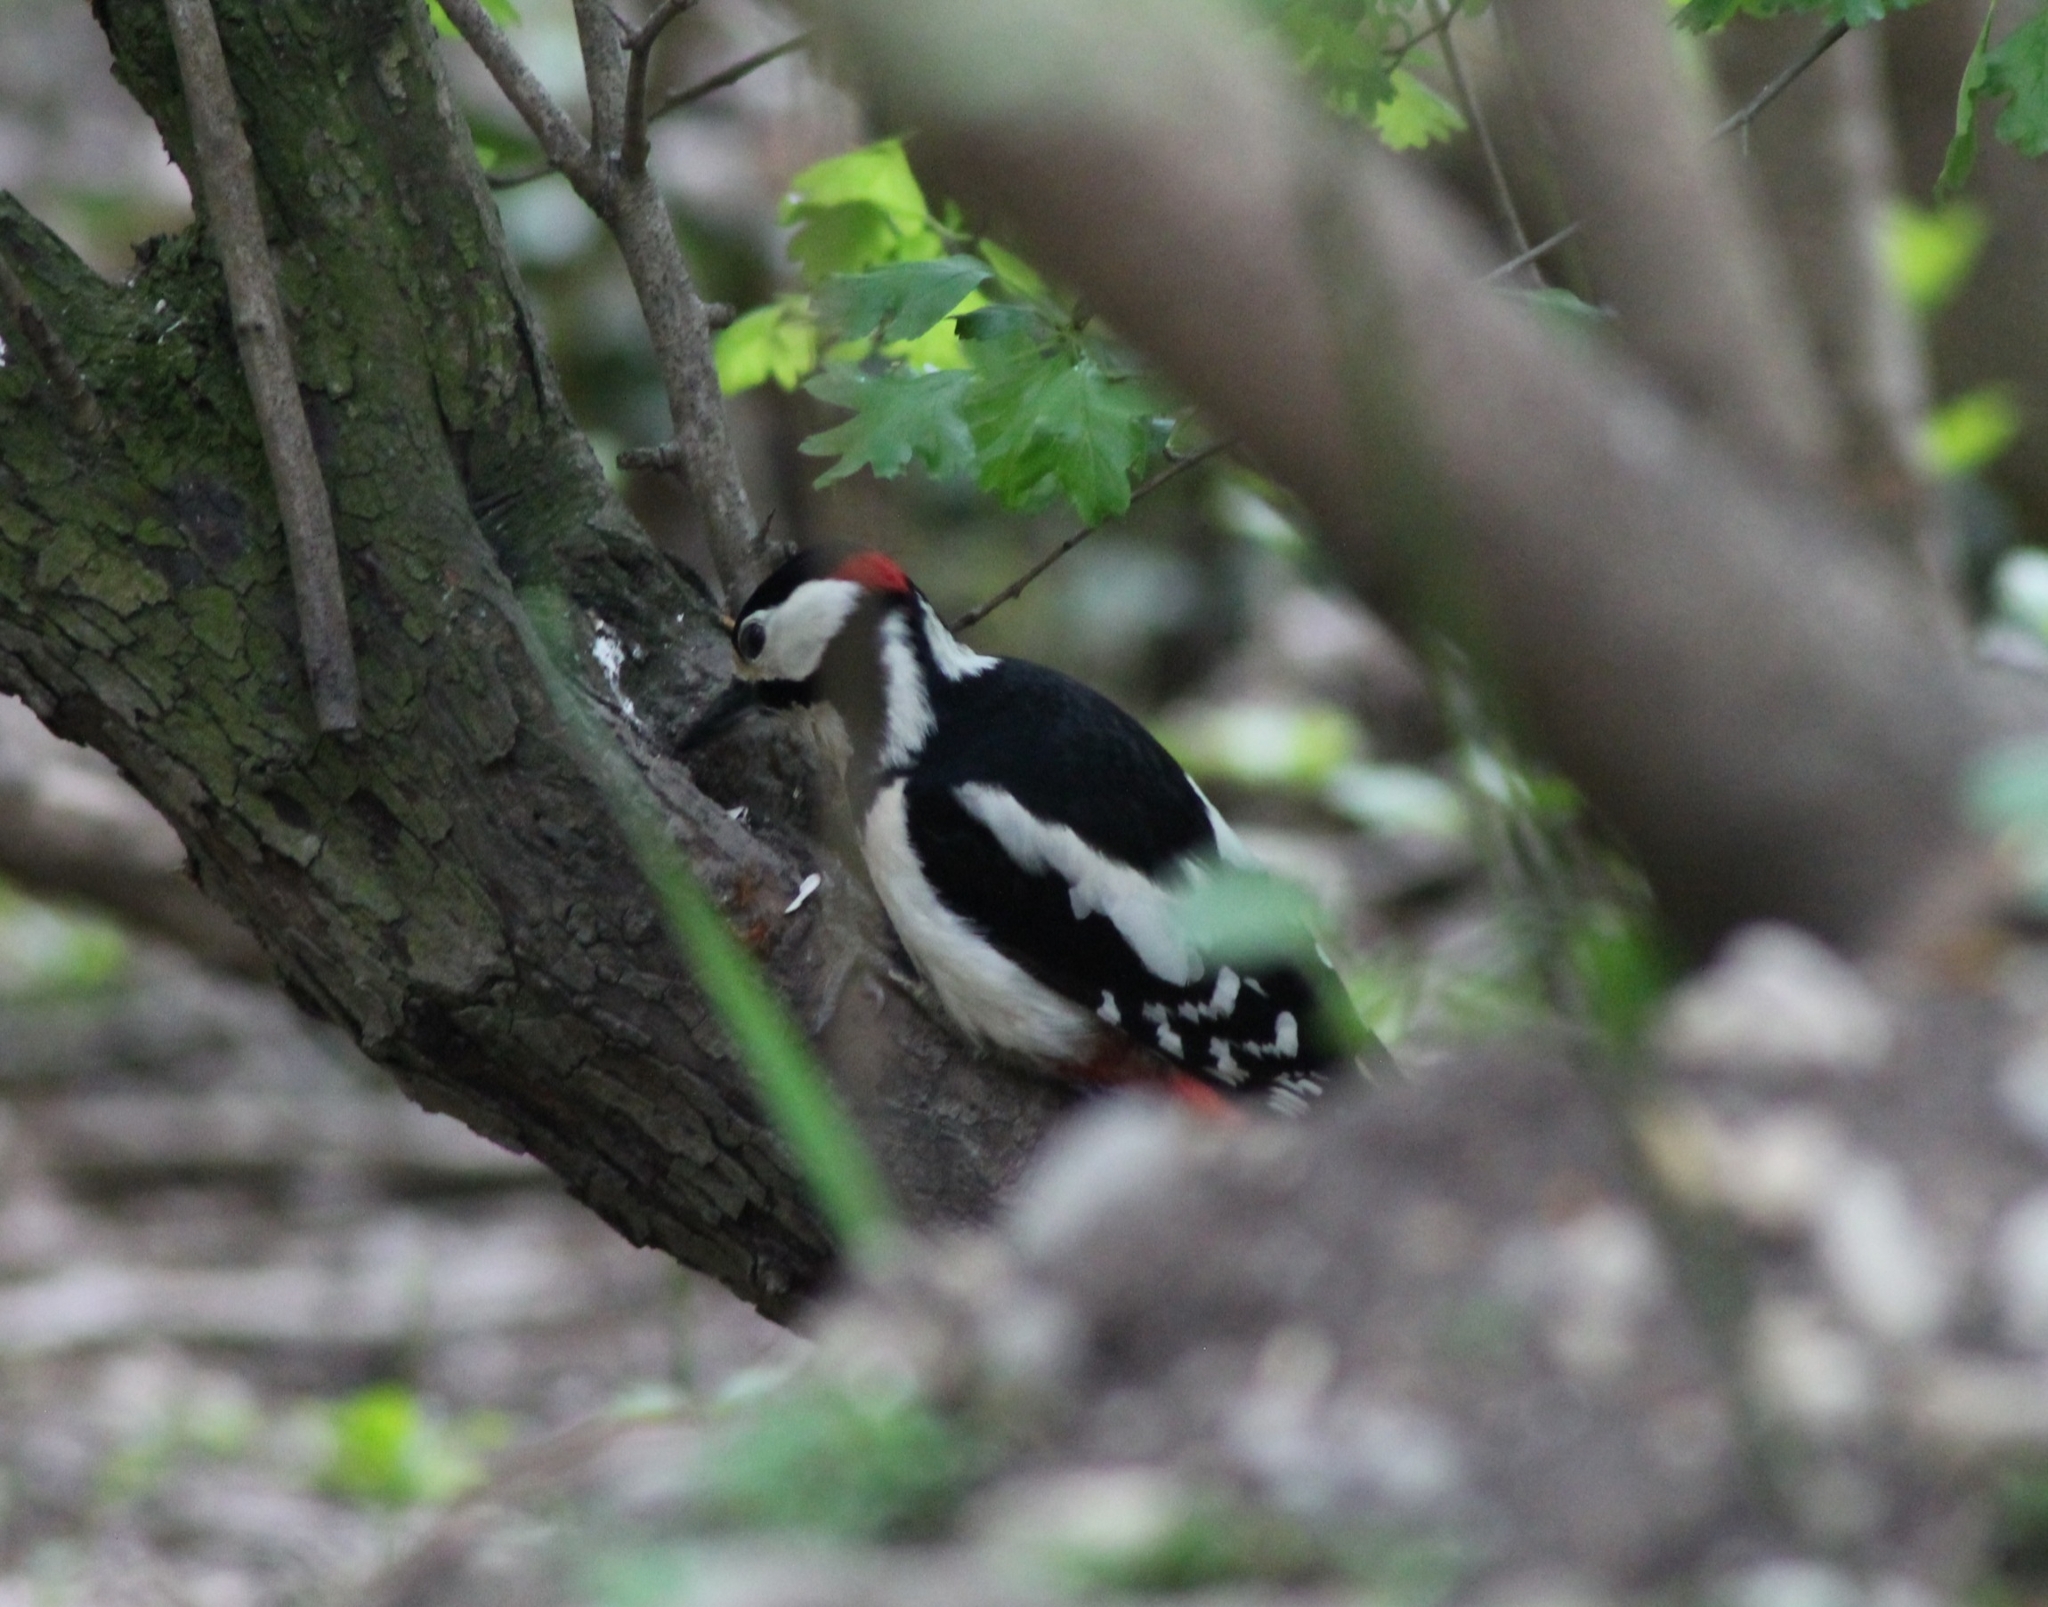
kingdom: Animalia
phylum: Chordata
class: Aves
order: Piciformes
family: Picidae
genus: Dendrocopos
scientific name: Dendrocopos major
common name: Great spotted woodpecker
